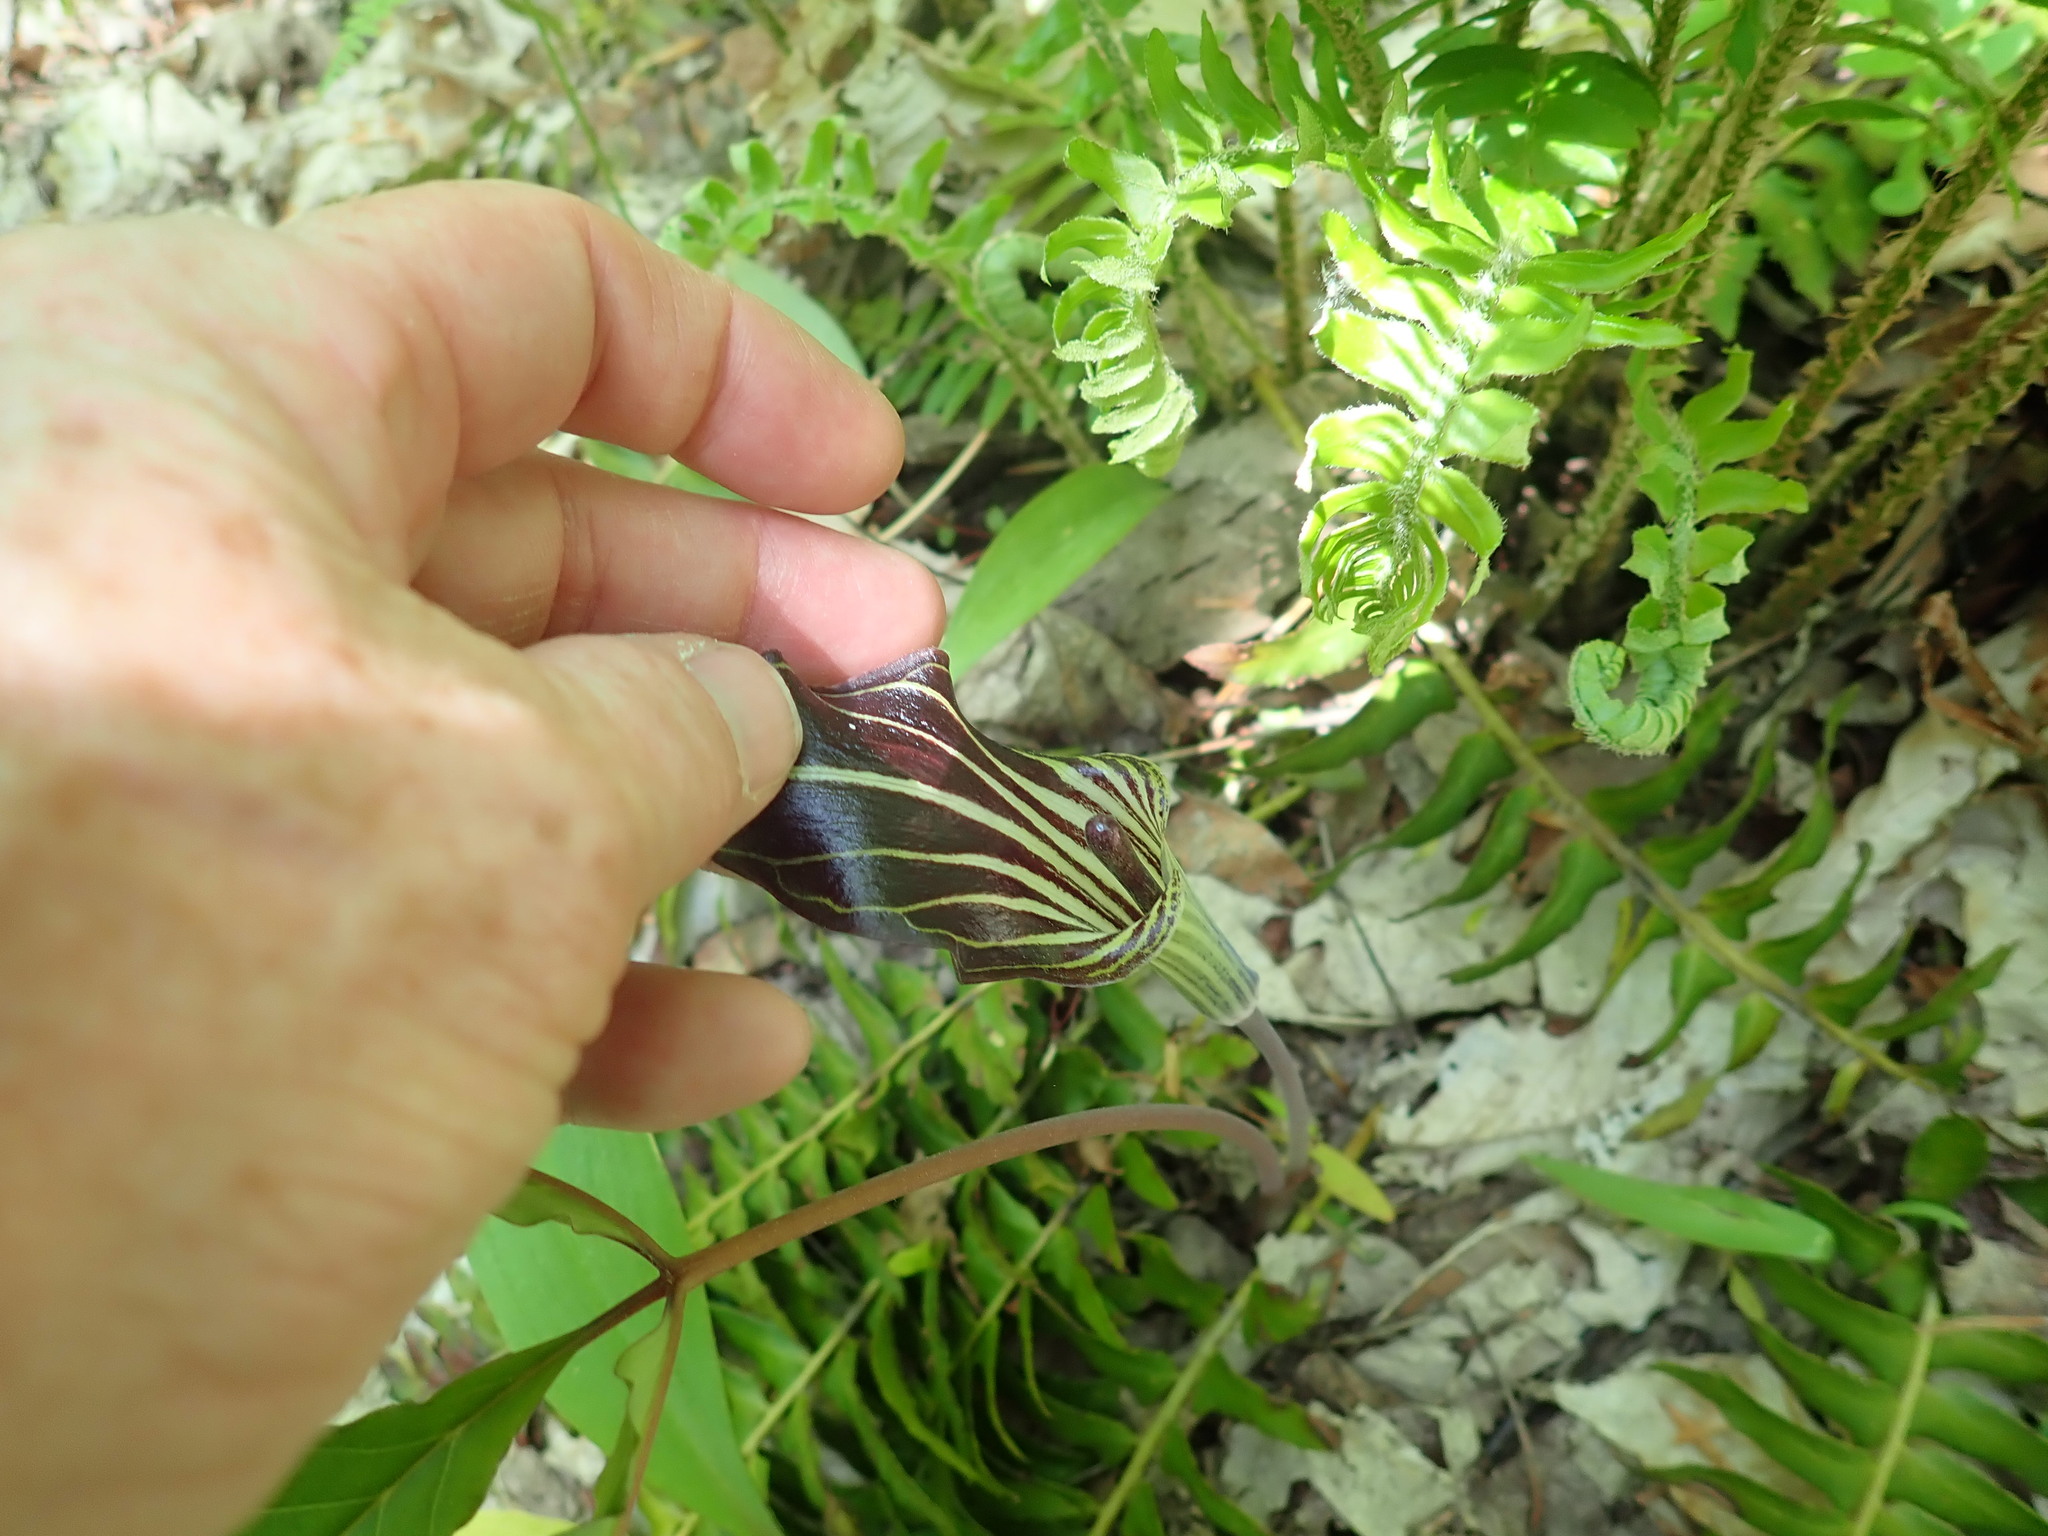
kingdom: Plantae
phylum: Tracheophyta
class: Liliopsida
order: Alismatales
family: Araceae
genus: Arisaema
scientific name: Arisaema triphyllum
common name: Jack-in-the-pulpit
